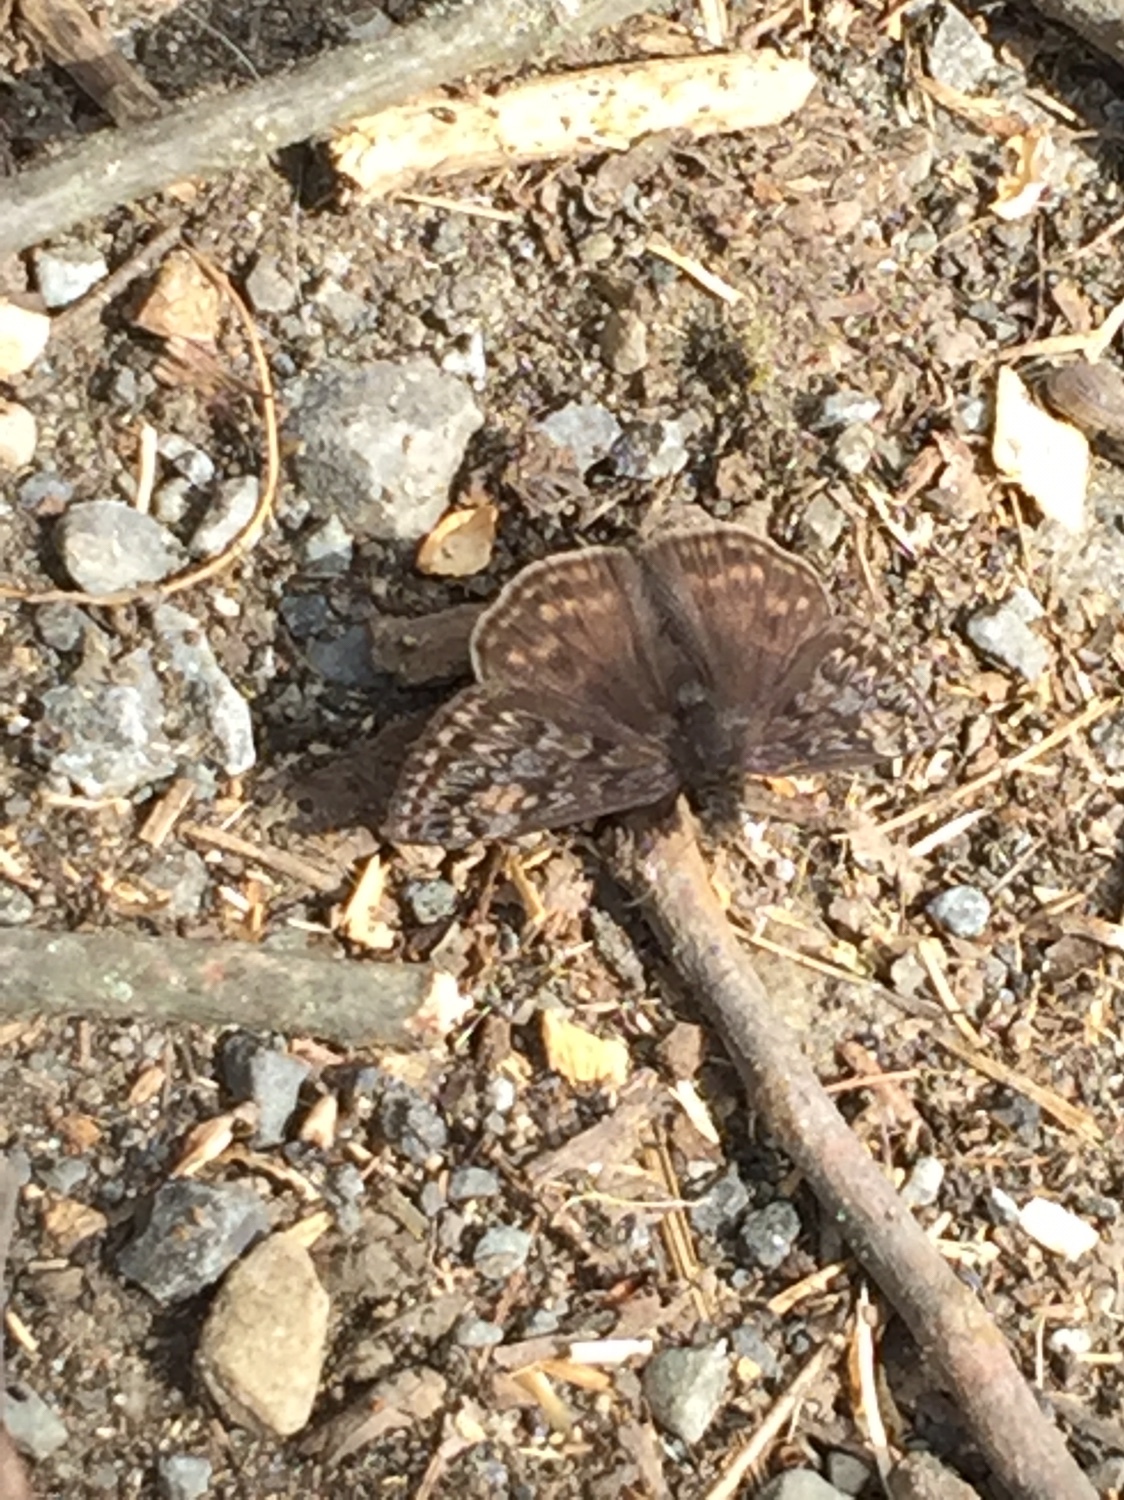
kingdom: Animalia
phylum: Arthropoda
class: Insecta
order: Lepidoptera
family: Hesperiidae
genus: Erynnis
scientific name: Erynnis juvenalis
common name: Juvenal's duskywing
